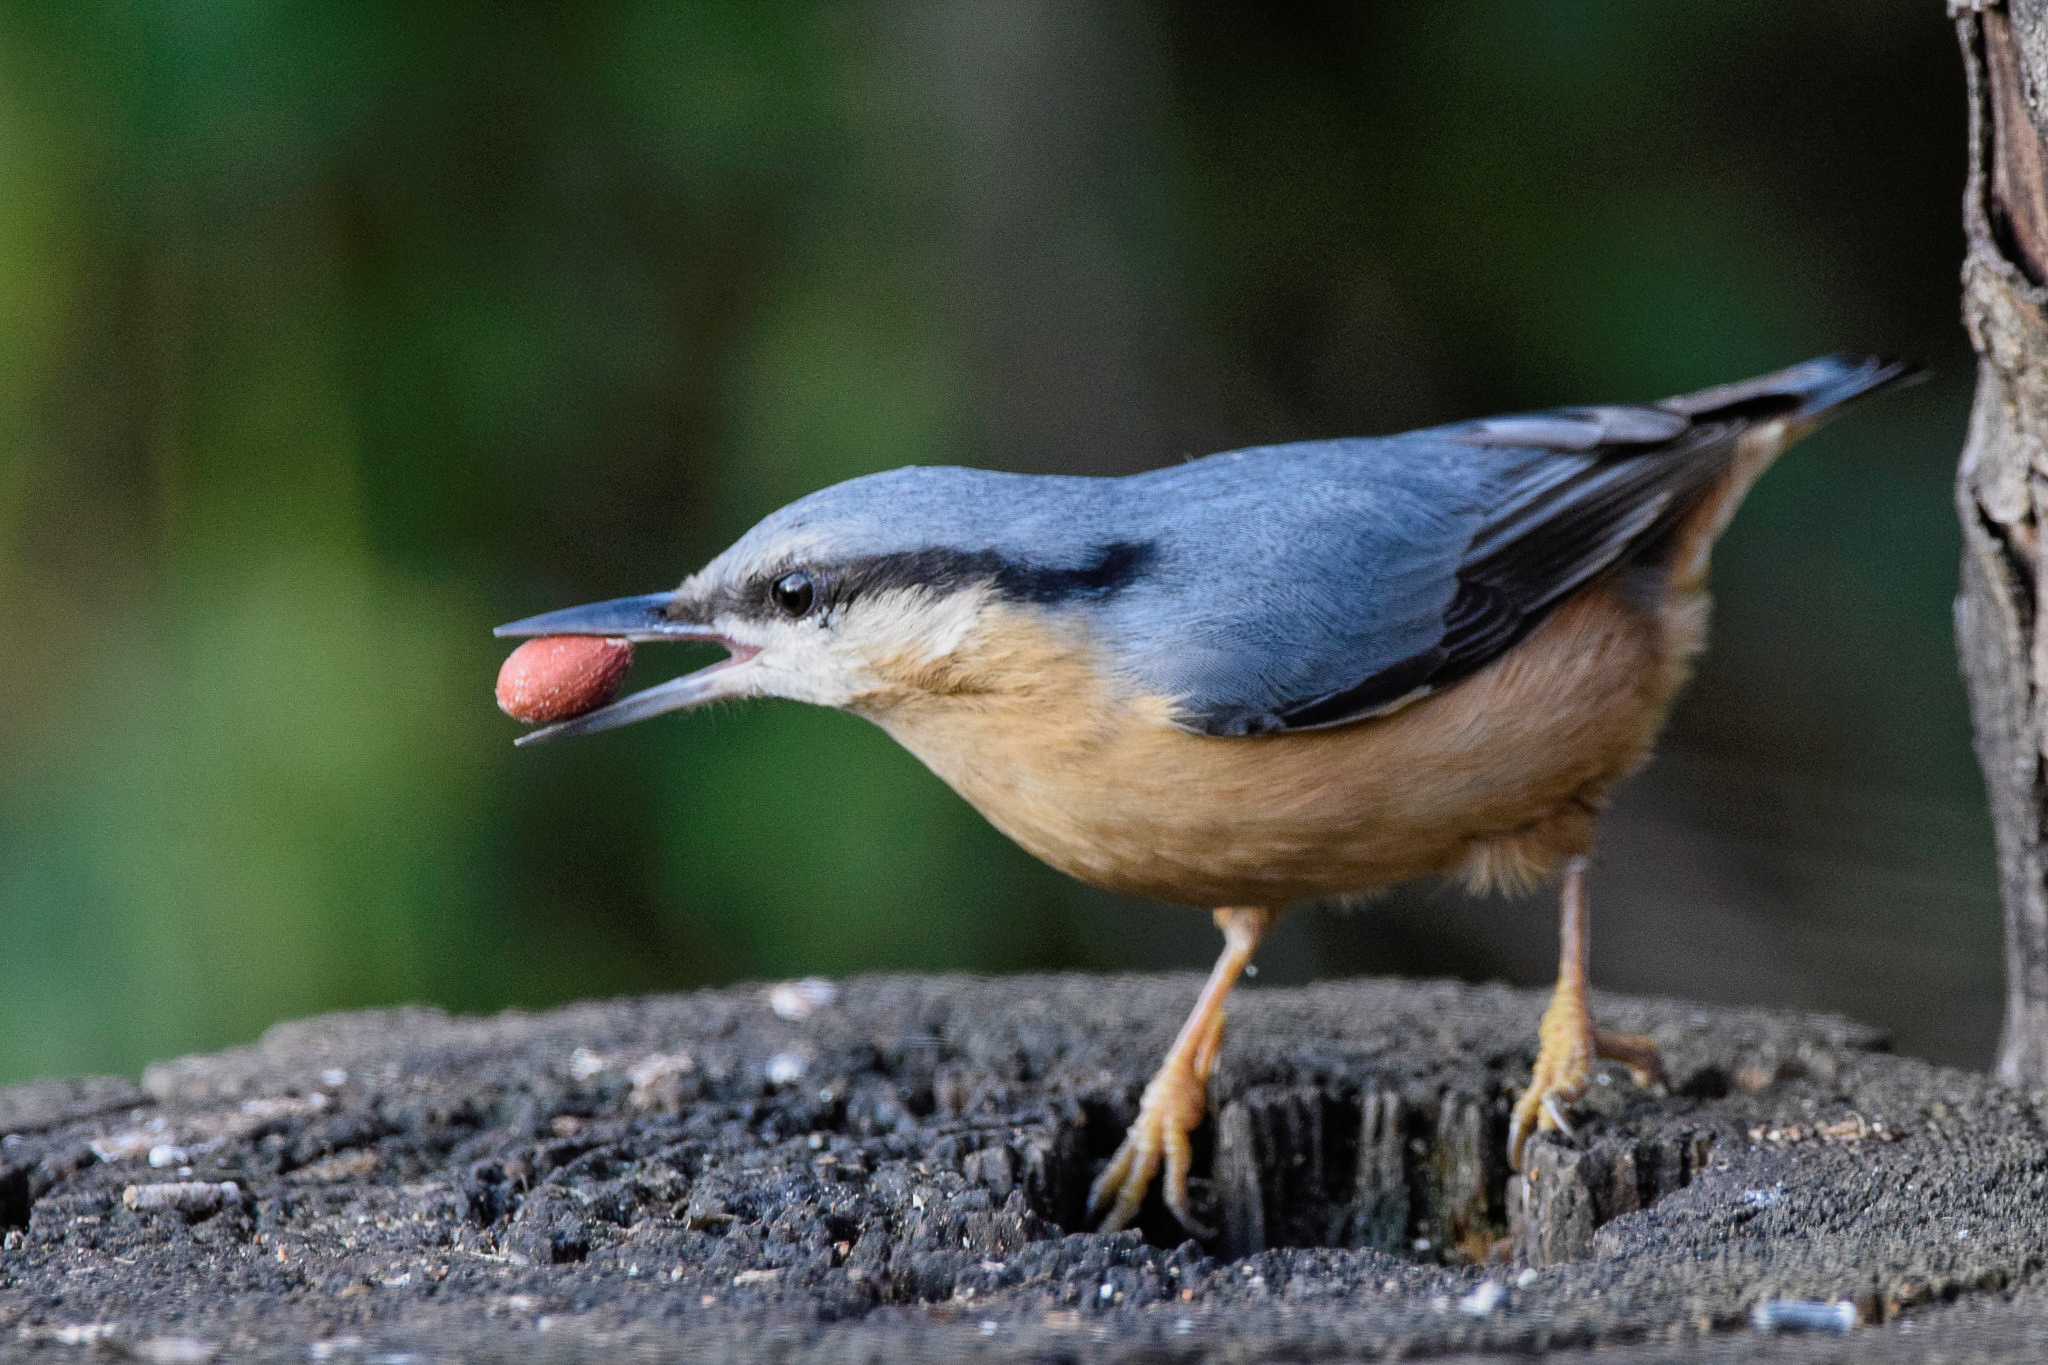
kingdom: Animalia
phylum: Chordata
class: Aves
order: Passeriformes
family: Sittidae
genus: Sitta
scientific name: Sitta europaea
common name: Eurasian nuthatch
